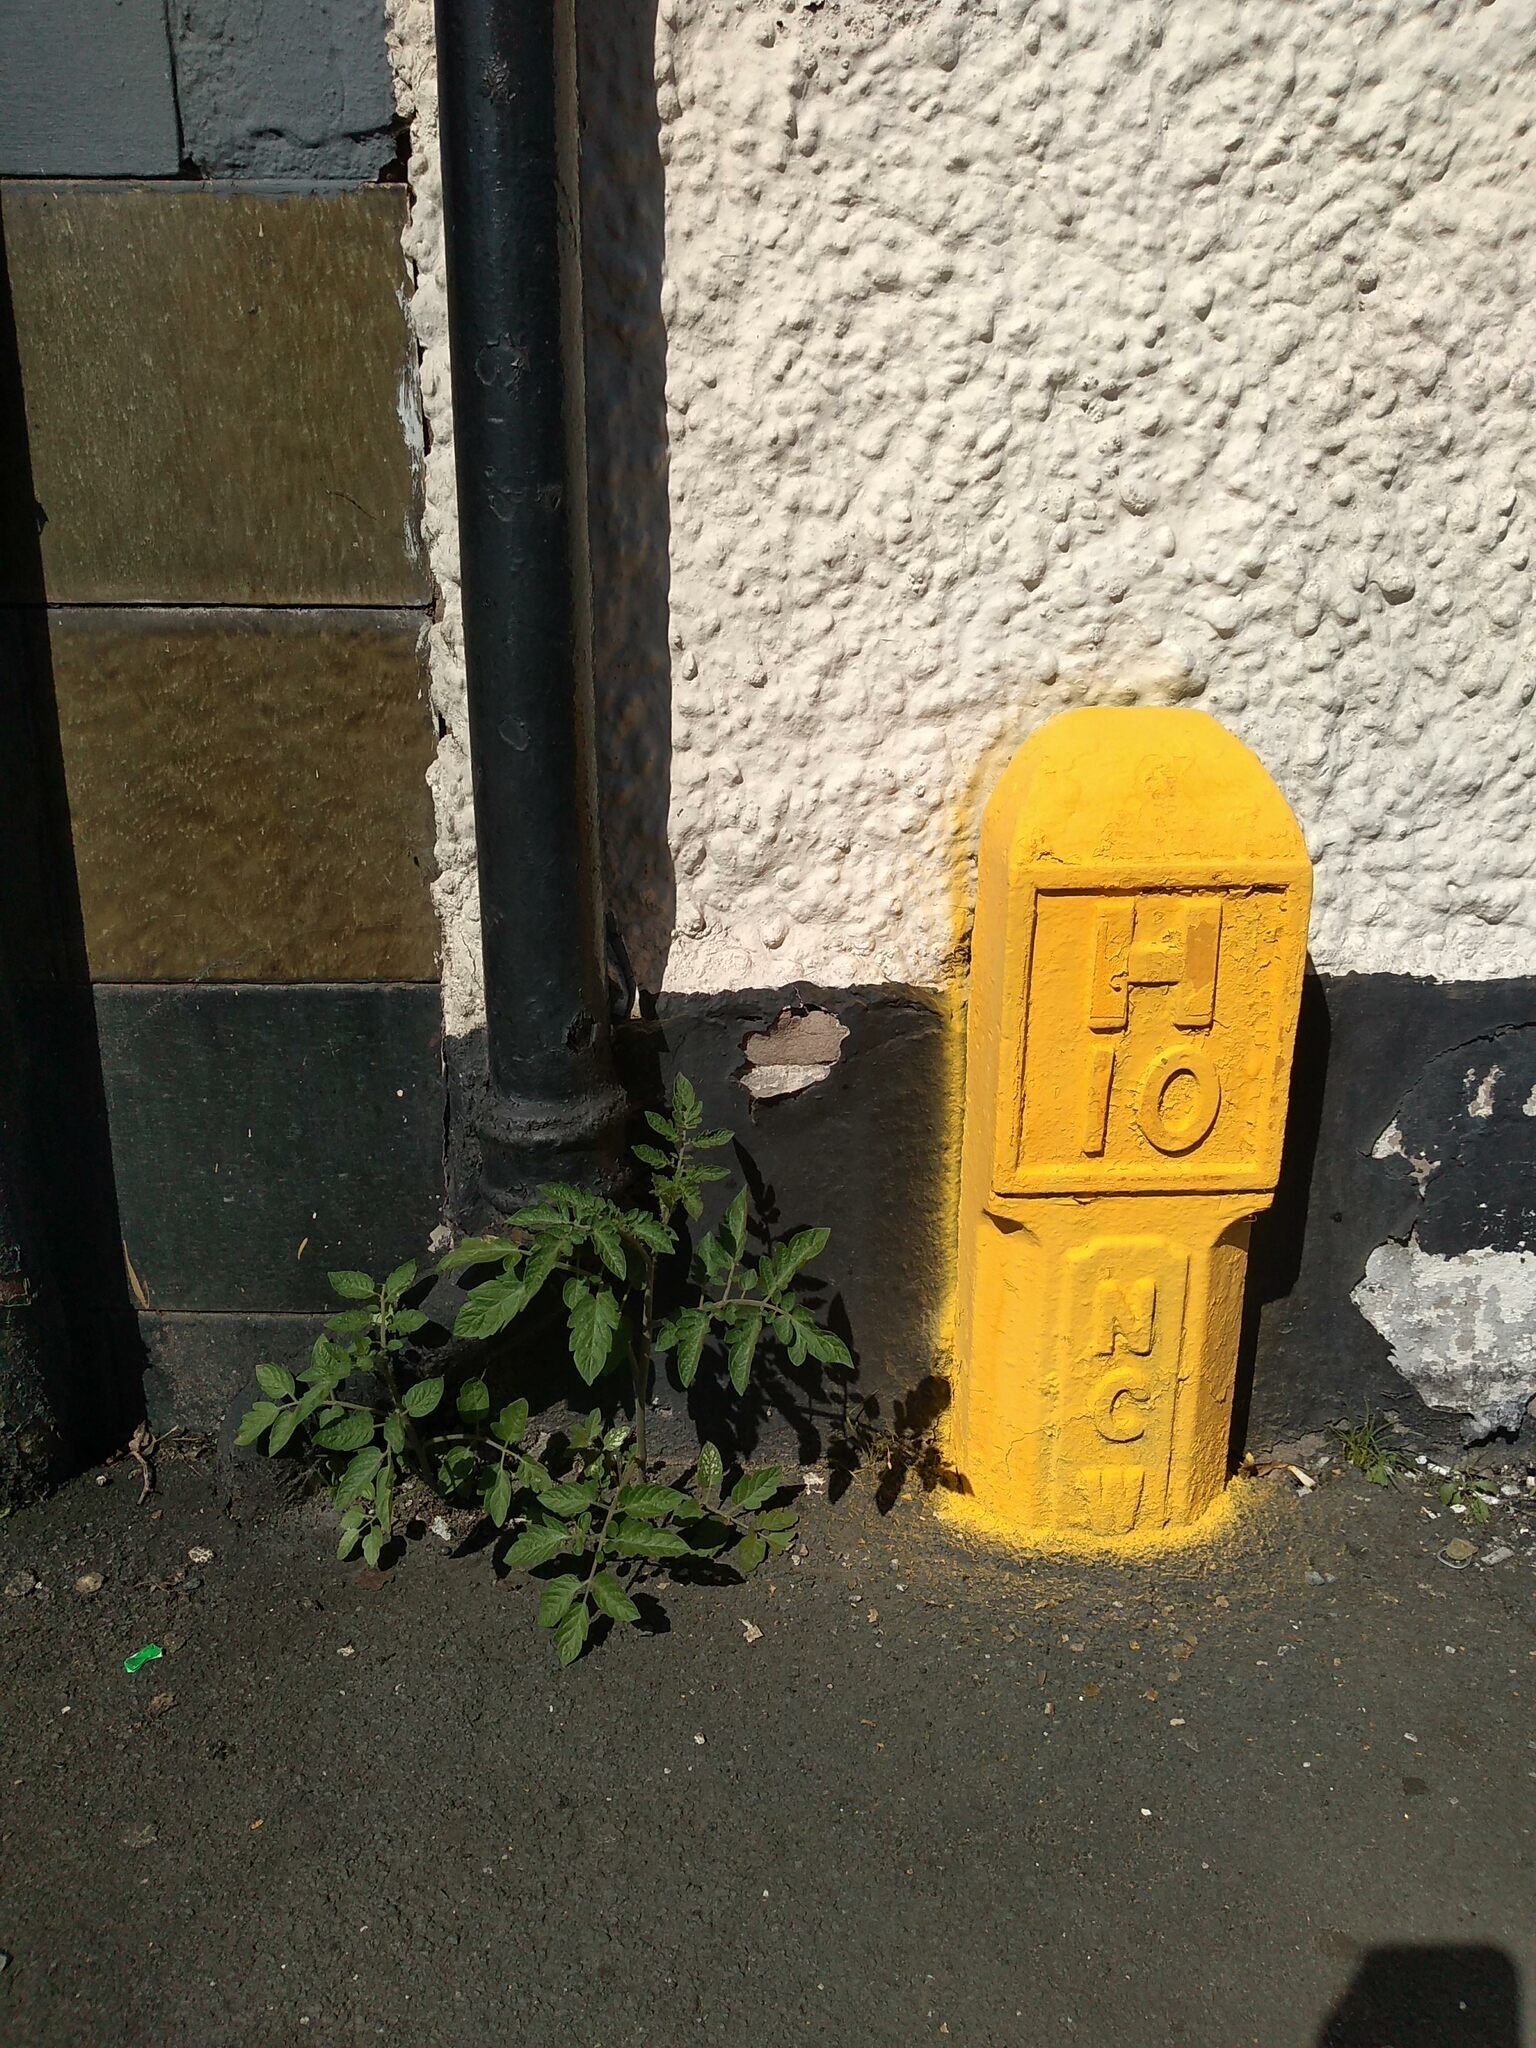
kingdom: Plantae
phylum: Tracheophyta
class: Magnoliopsida
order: Solanales
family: Solanaceae
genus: Solanum
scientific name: Solanum lycopersicum
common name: Garden tomato
